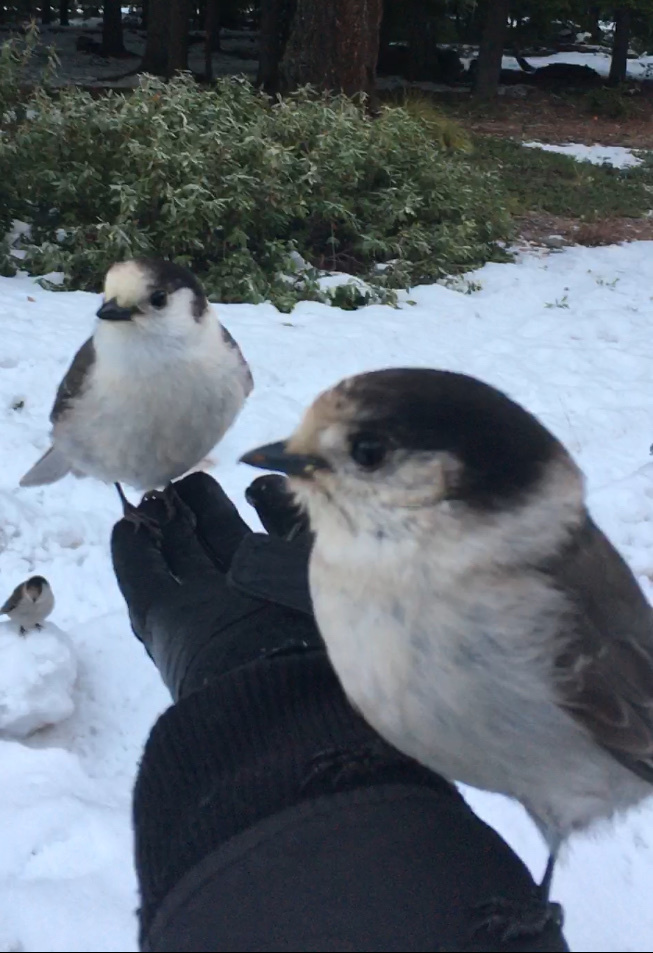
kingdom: Animalia
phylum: Chordata
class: Aves
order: Passeriformes
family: Corvidae
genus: Perisoreus
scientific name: Perisoreus canadensis
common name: Gray jay
